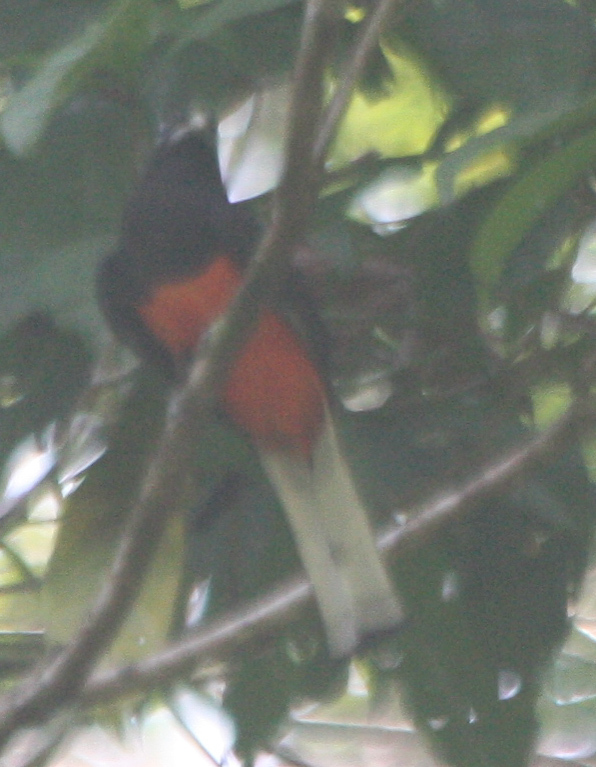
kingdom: Animalia
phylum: Chordata
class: Aves
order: Trogoniformes
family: Trogonidae
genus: Trogon
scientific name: Trogon bairdii
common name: Baird's trogon
